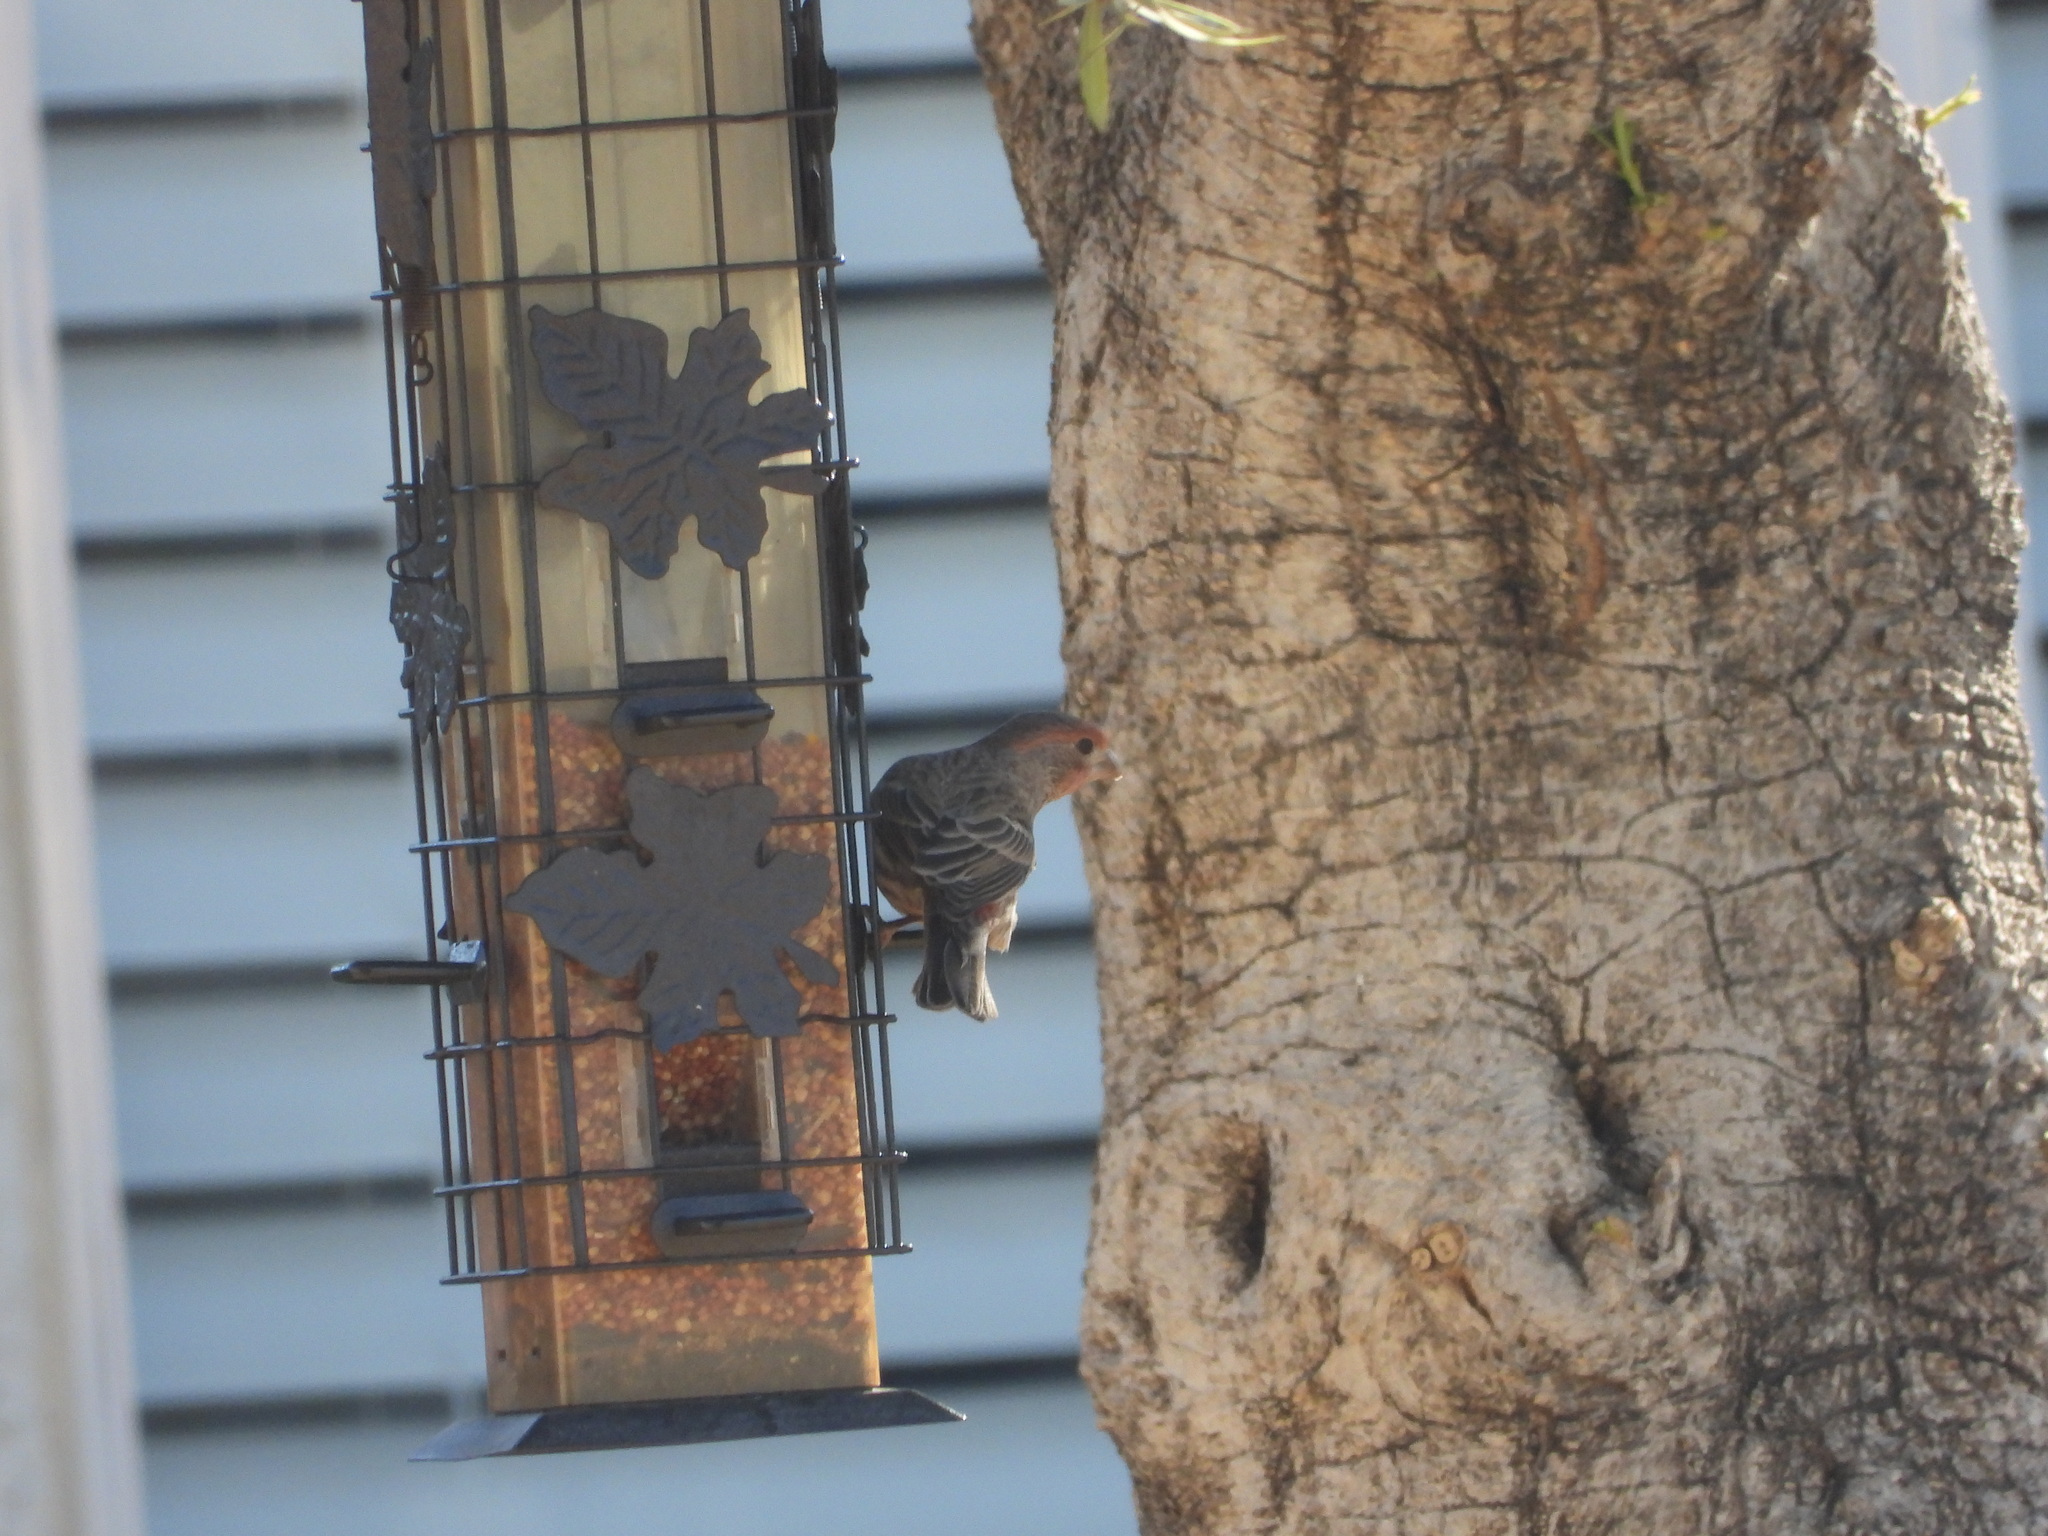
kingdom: Animalia
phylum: Chordata
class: Aves
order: Passeriformes
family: Fringillidae
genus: Haemorhous
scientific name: Haemorhous mexicanus
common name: House finch
